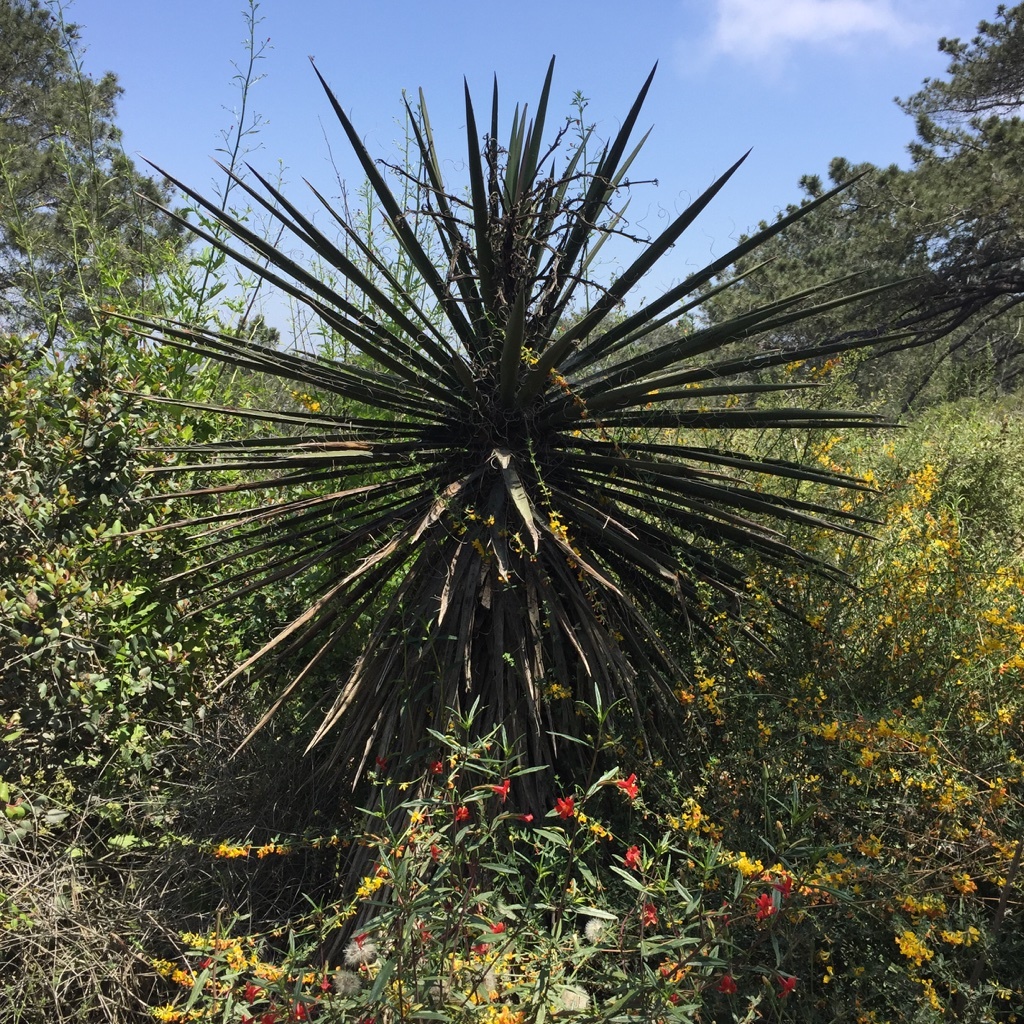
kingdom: Plantae
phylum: Tracheophyta
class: Liliopsida
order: Asparagales
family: Asparagaceae
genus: Yucca
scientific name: Yucca schidigera
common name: Mojave yucca
